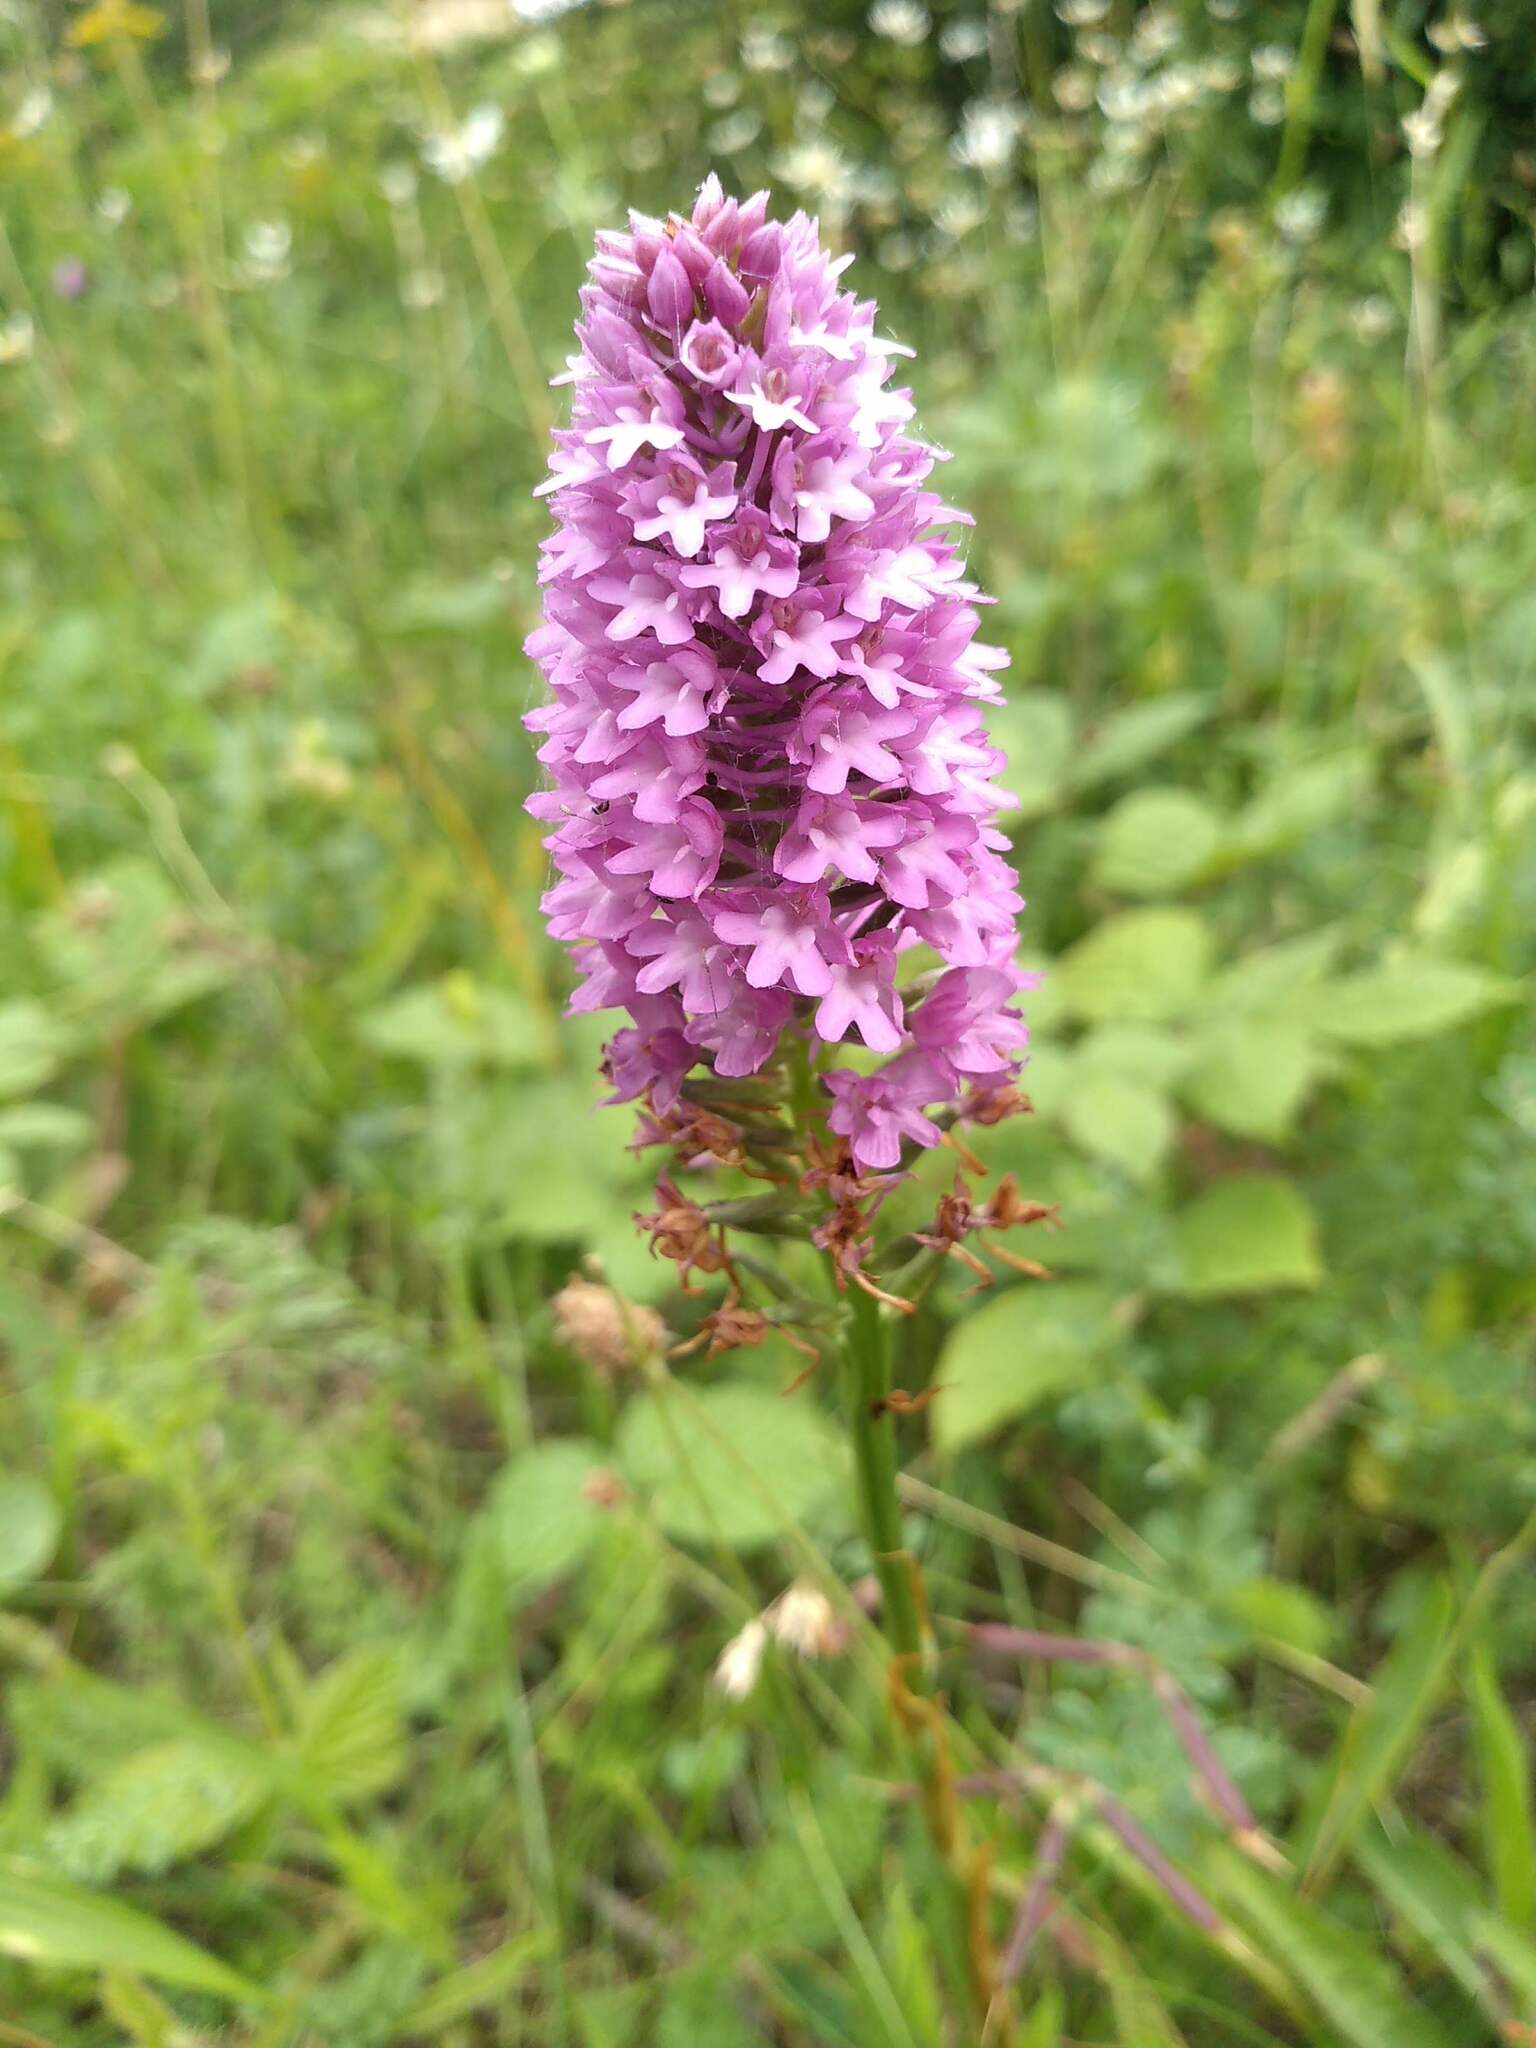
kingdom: Plantae
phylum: Tracheophyta
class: Liliopsida
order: Asparagales
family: Orchidaceae
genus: Anacamptis
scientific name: Anacamptis pyramidalis
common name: Pyramidal orchid
